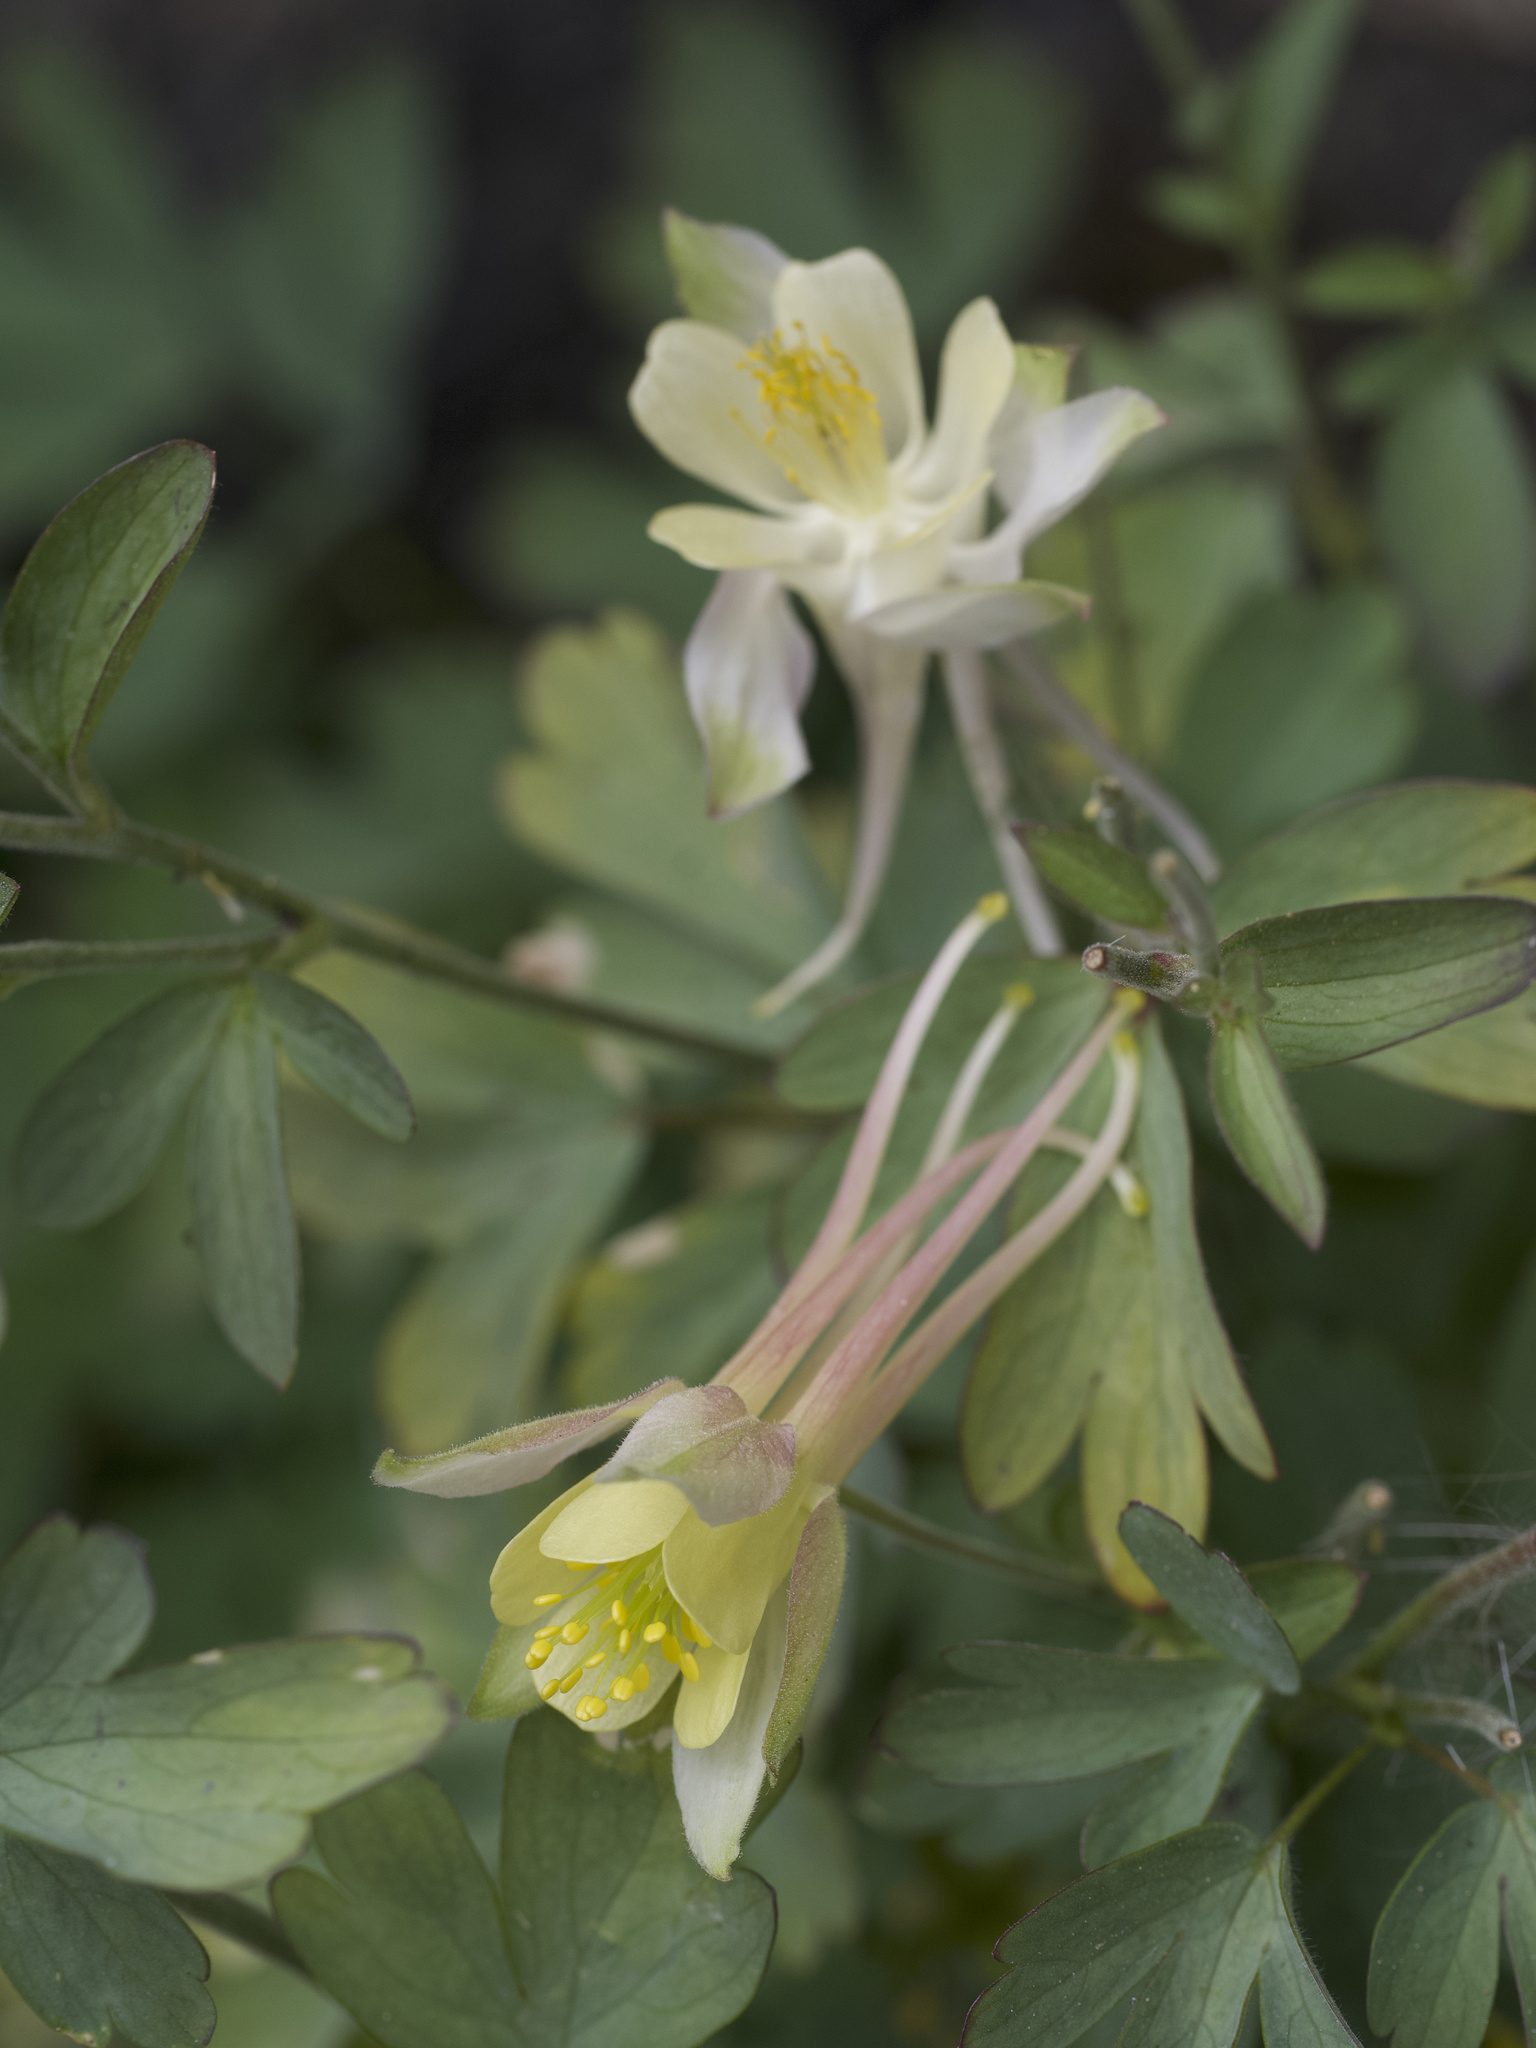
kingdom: Plantae
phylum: Tracheophyta
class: Magnoliopsida
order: Ranunculales
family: Ranunculaceae
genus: Aquilegia
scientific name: Aquilegia pubescens
